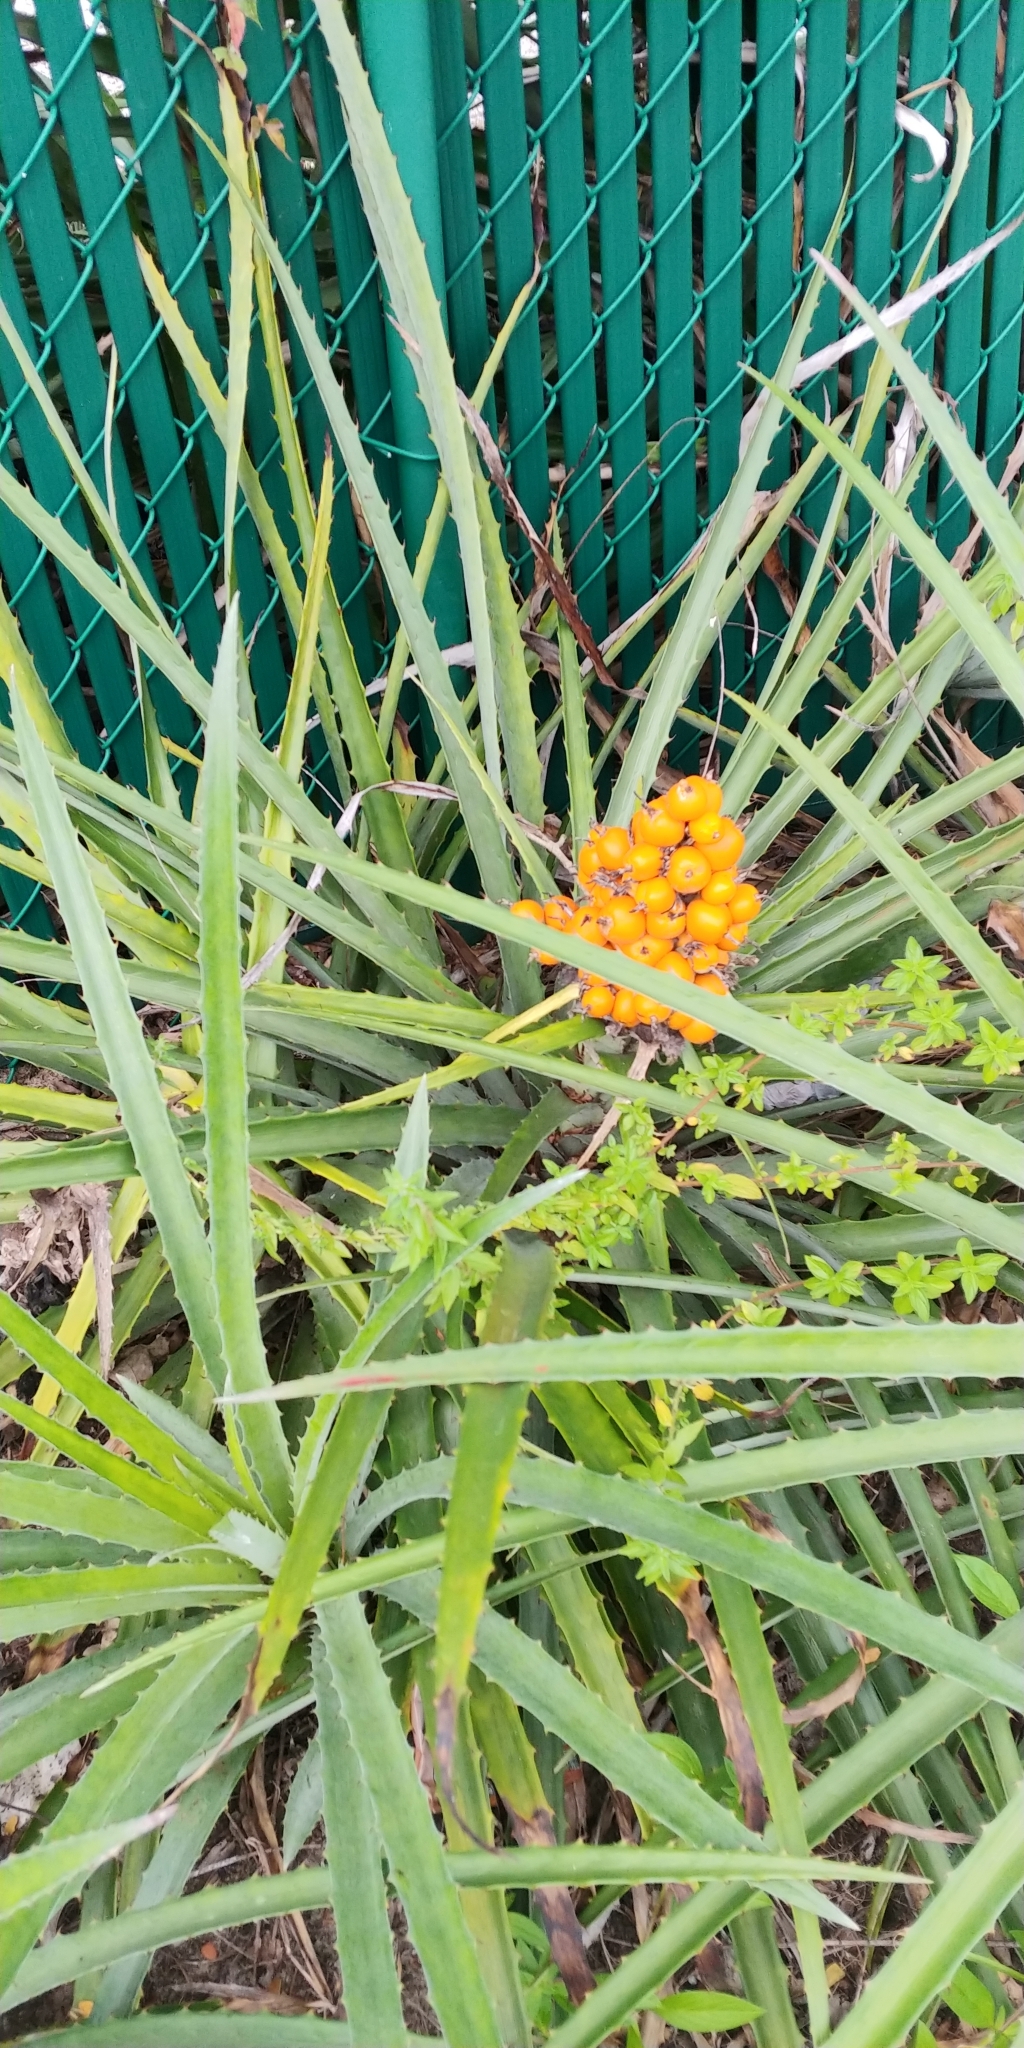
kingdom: Plantae
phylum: Tracheophyta
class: Liliopsida
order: Poales
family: Bromeliaceae
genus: Bromelia
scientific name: Bromelia pinguin
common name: Pinguin
